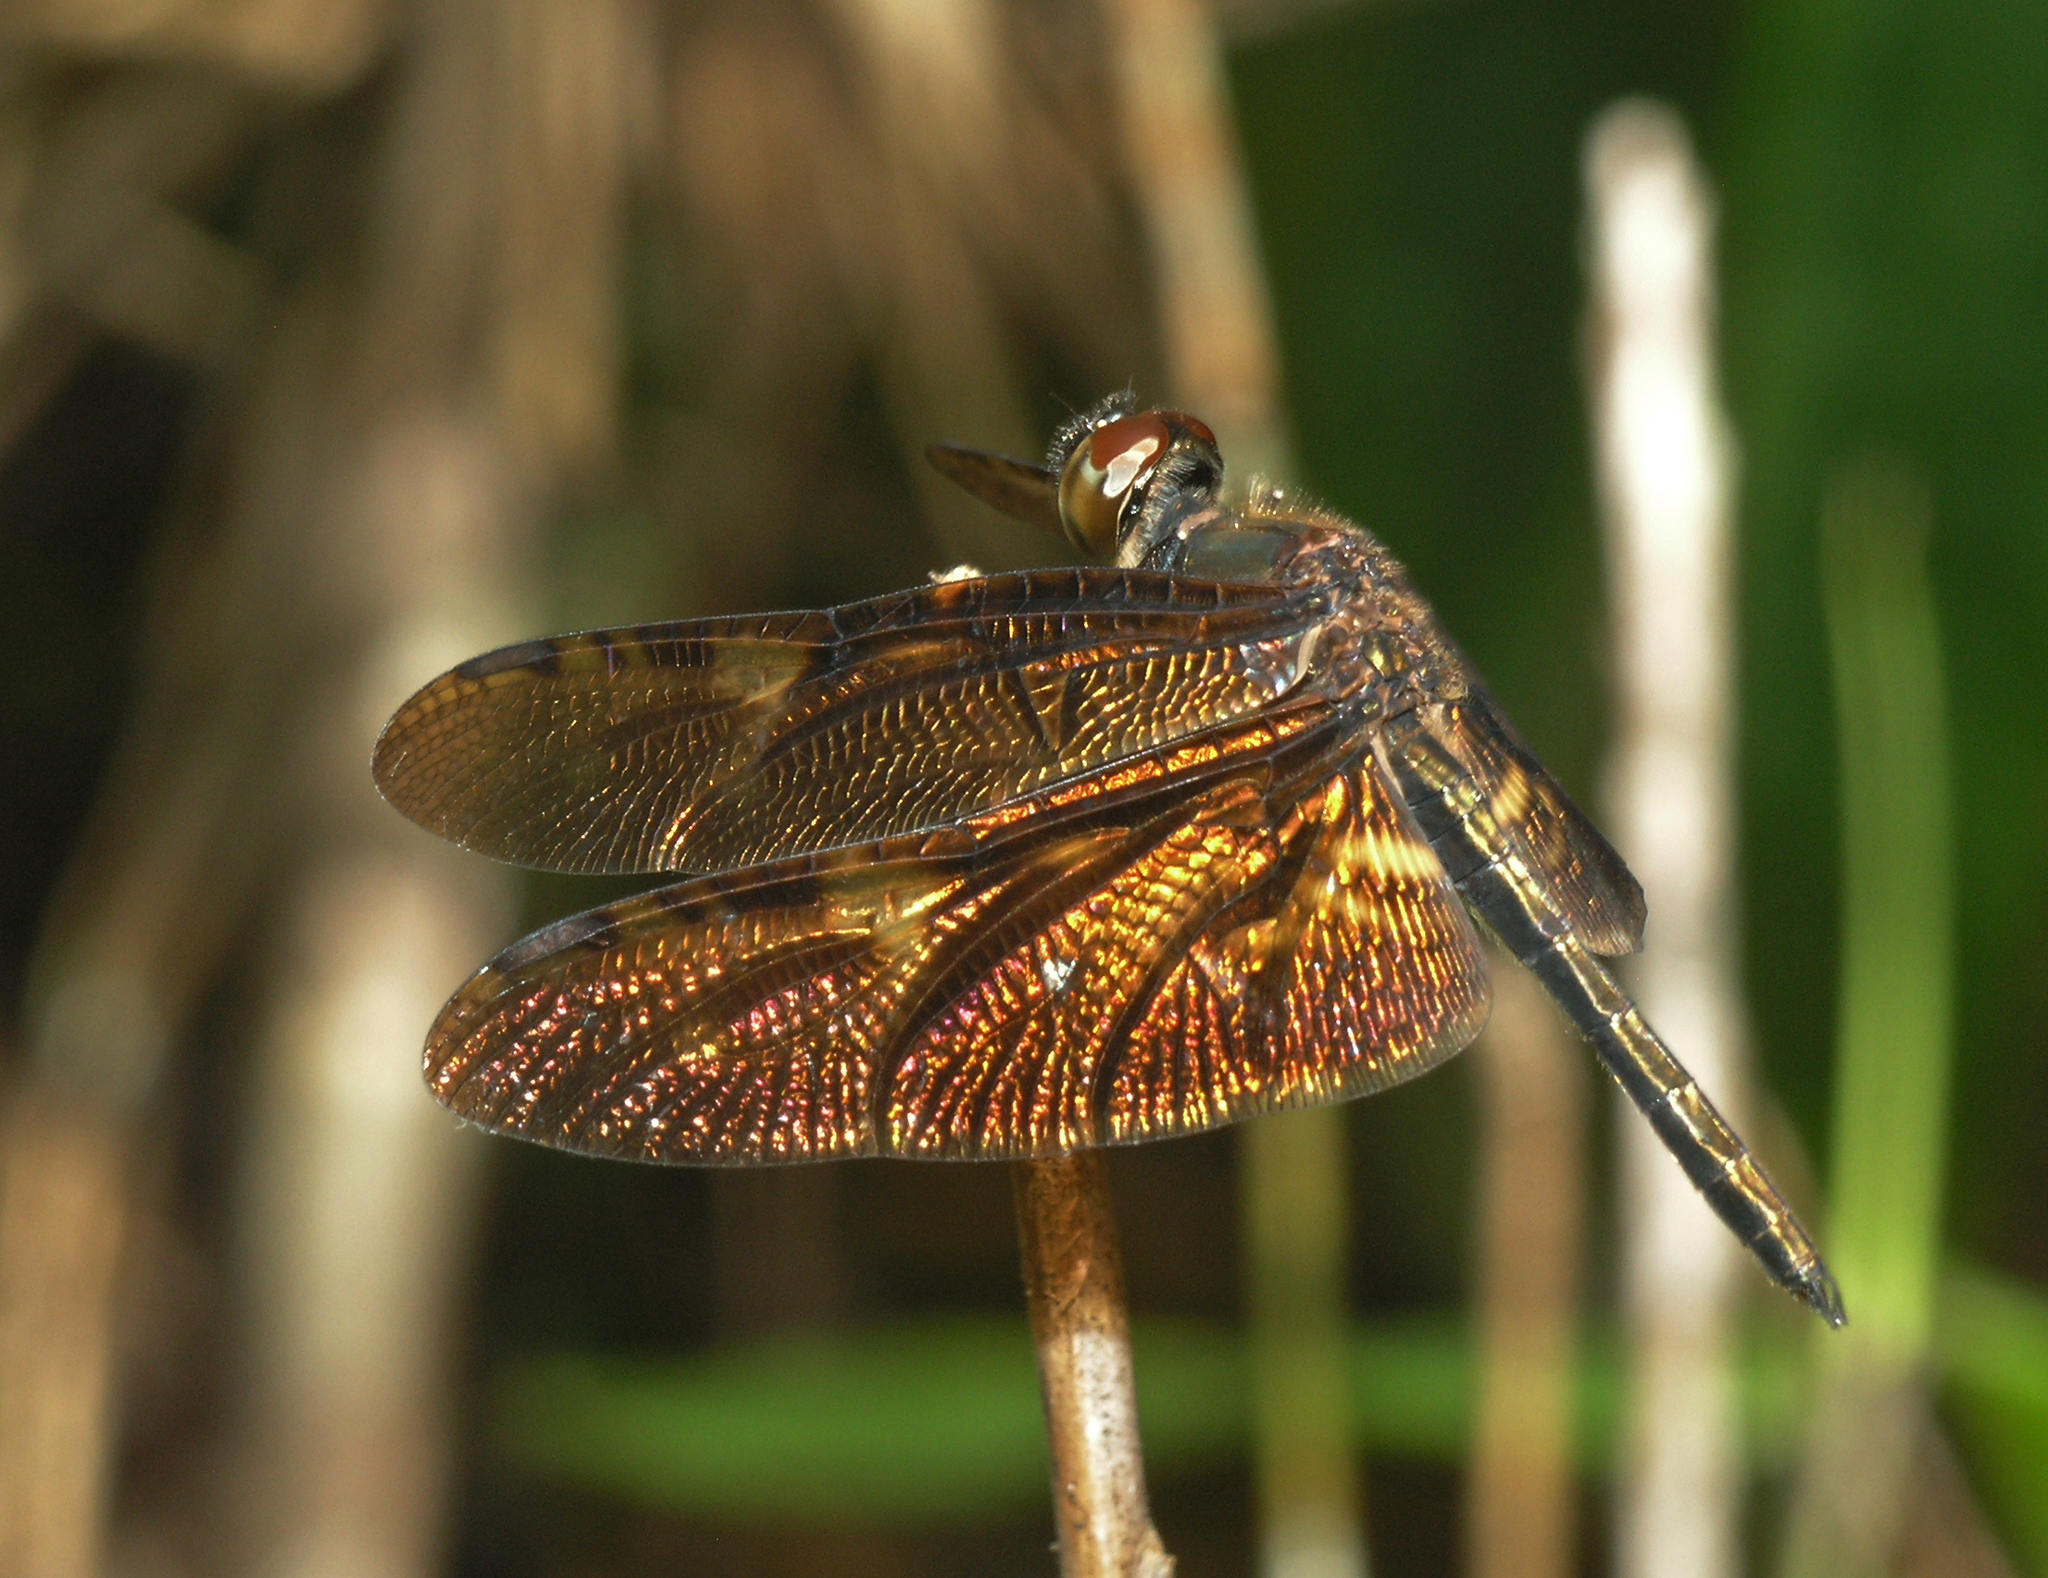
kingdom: Animalia
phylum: Arthropoda
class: Insecta
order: Odonata
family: Libellulidae
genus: Rhyothemis
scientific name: Rhyothemis obsolescens
